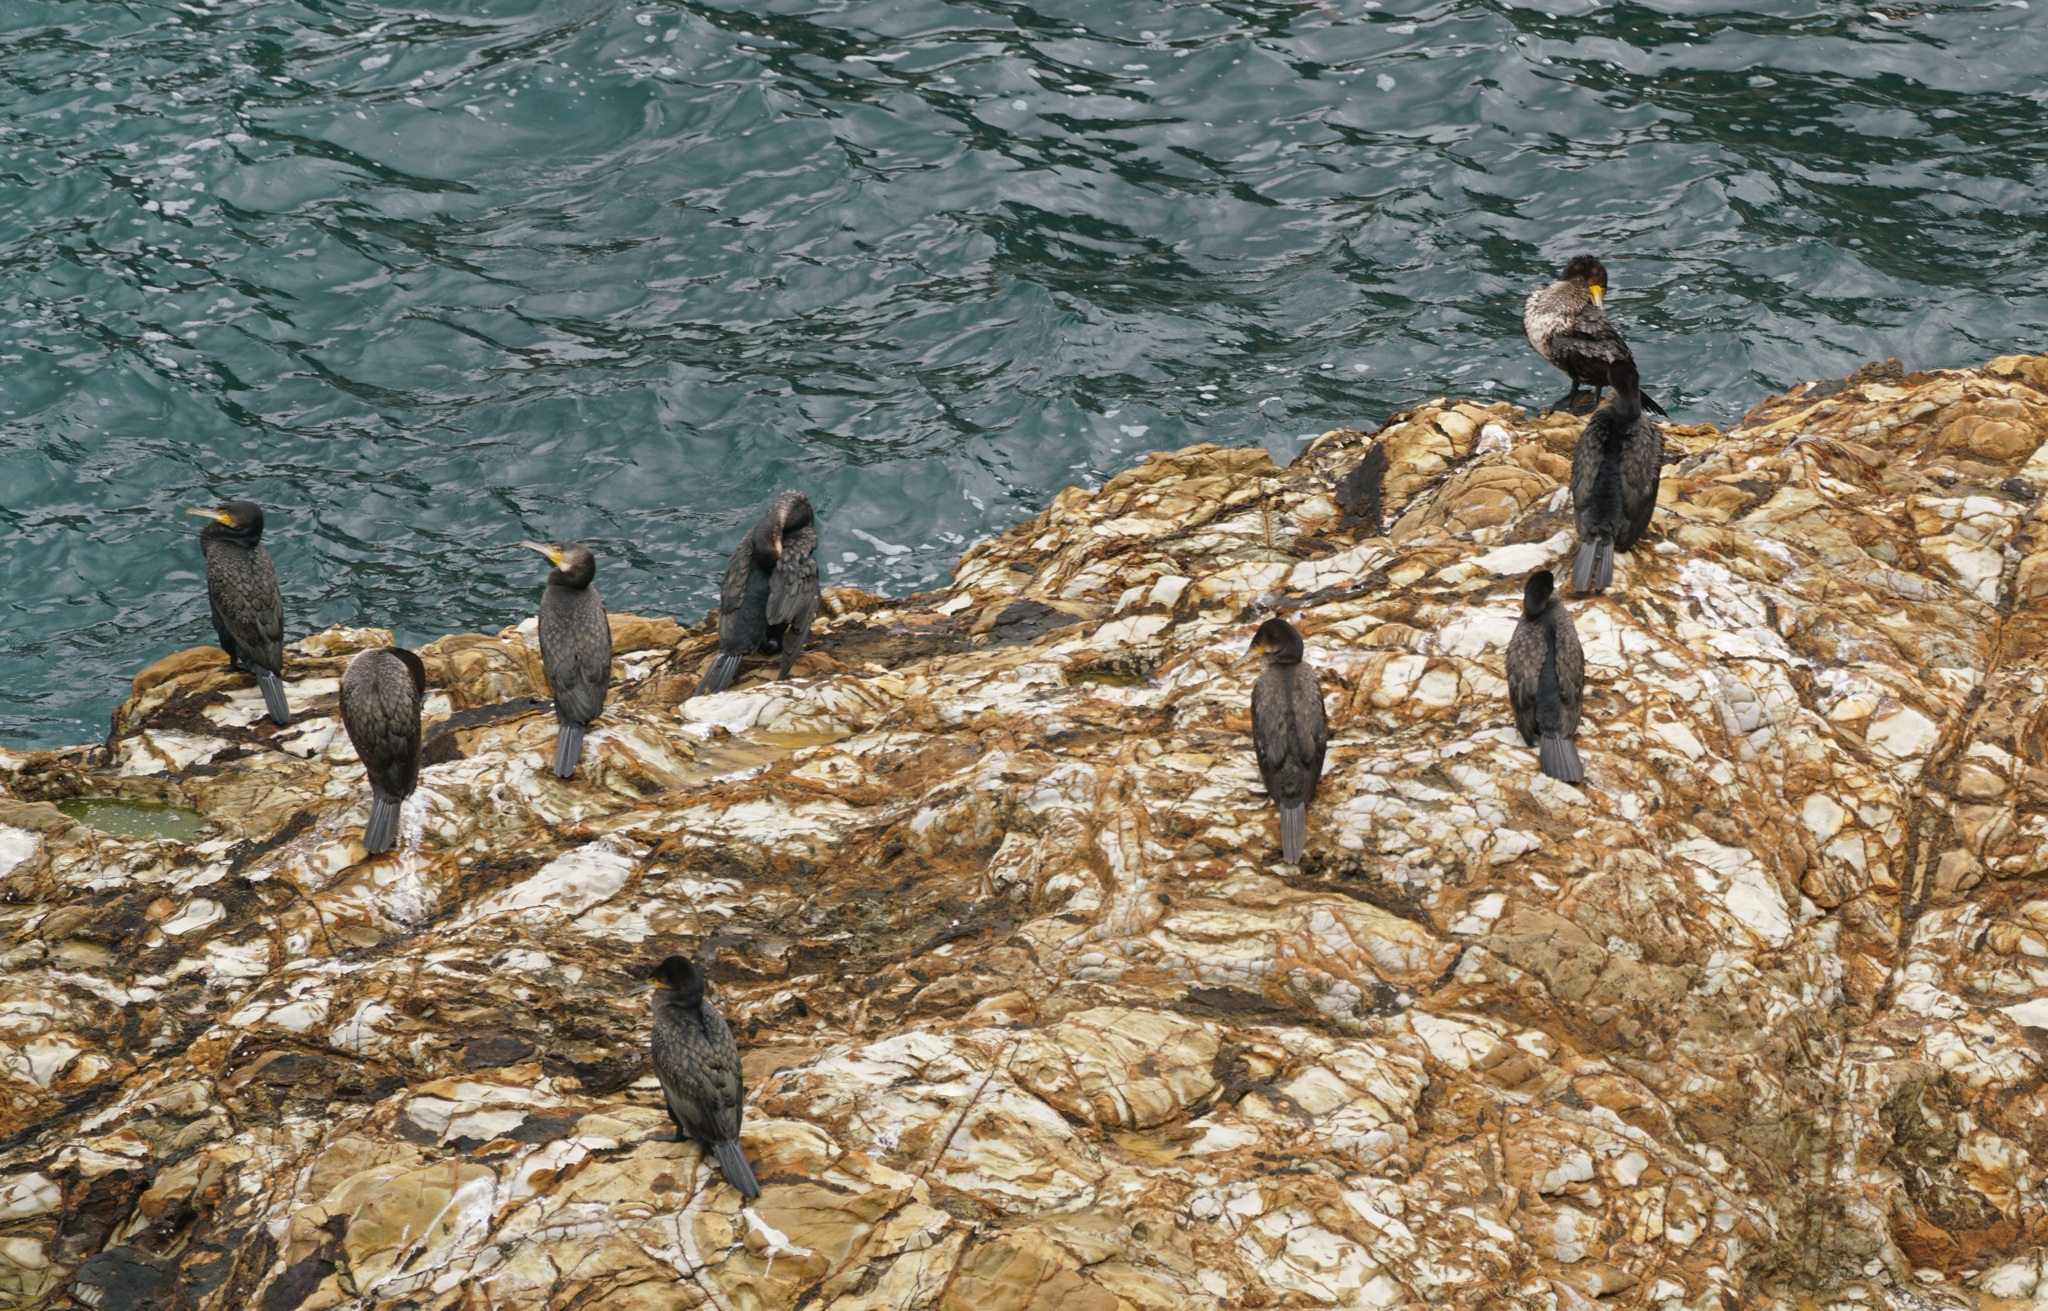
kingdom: Animalia
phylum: Chordata
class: Aves
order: Suliformes
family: Phalacrocoracidae
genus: Phalacrocorax
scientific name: Phalacrocorax carbo
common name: Great cormorant
